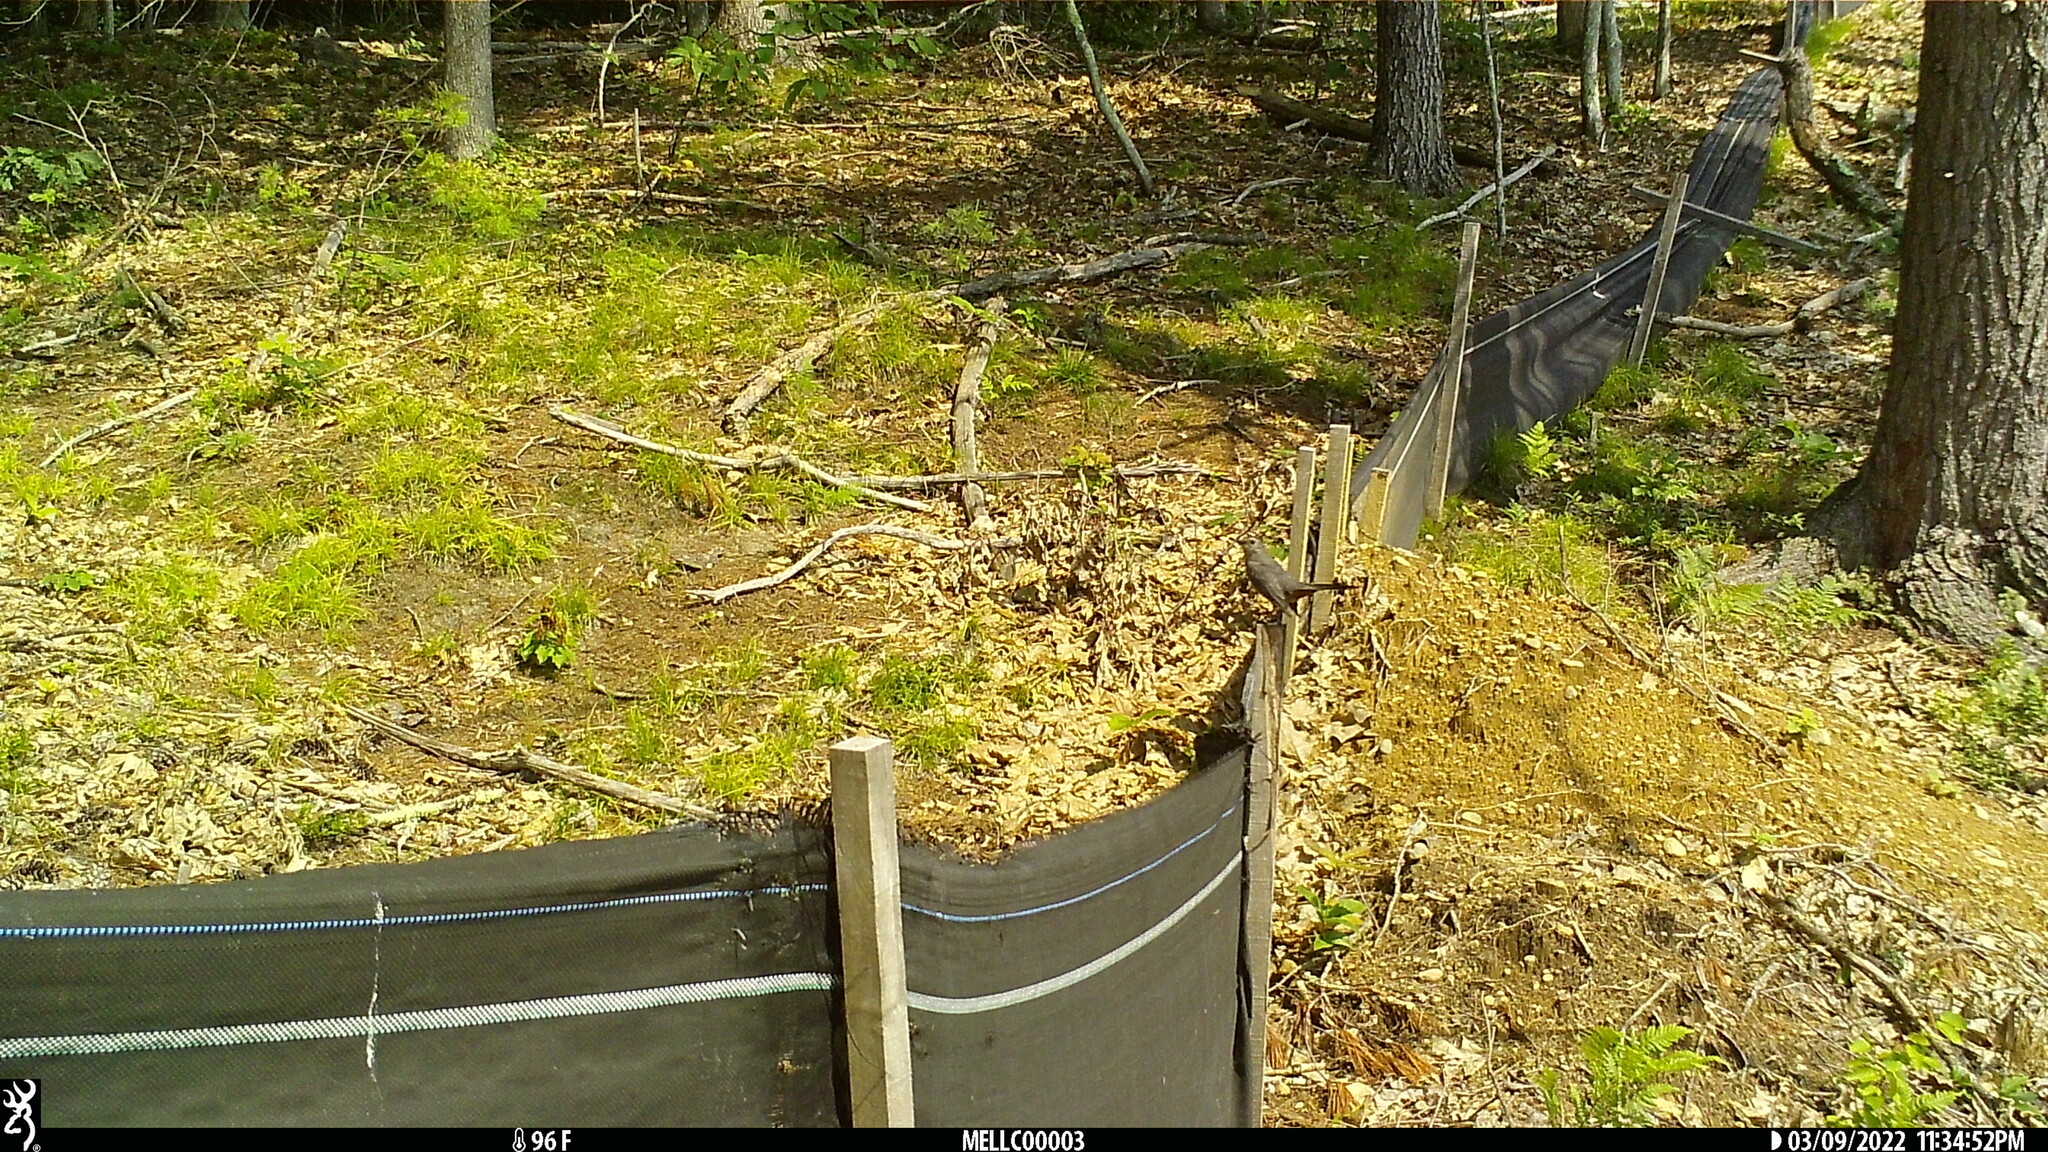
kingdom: Animalia
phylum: Chordata
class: Aves
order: Passeriformes
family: Mimidae
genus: Dumetella
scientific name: Dumetella carolinensis
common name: Gray catbird
